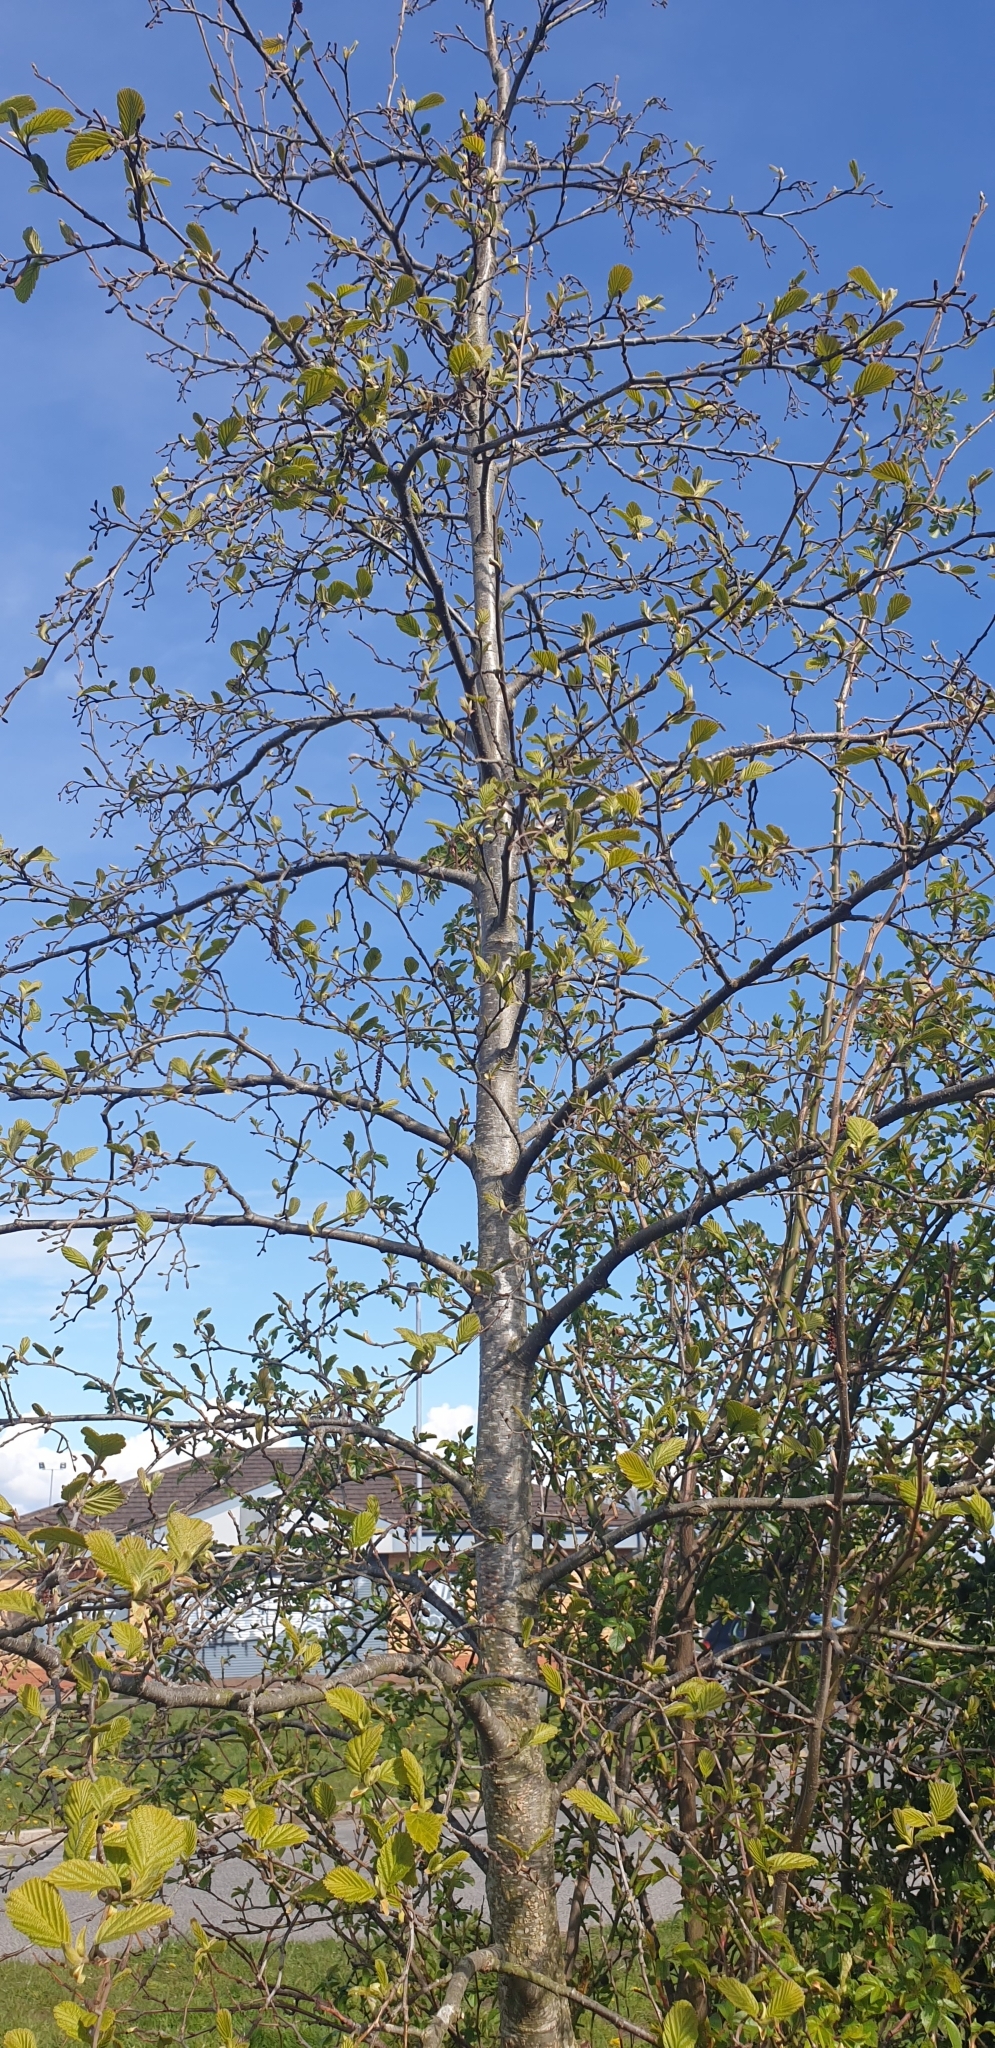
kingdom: Plantae
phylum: Tracheophyta
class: Magnoliopsida
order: Fagales
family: Betulaceae
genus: Alnus
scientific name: Alnus glutinosa
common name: Black alder
